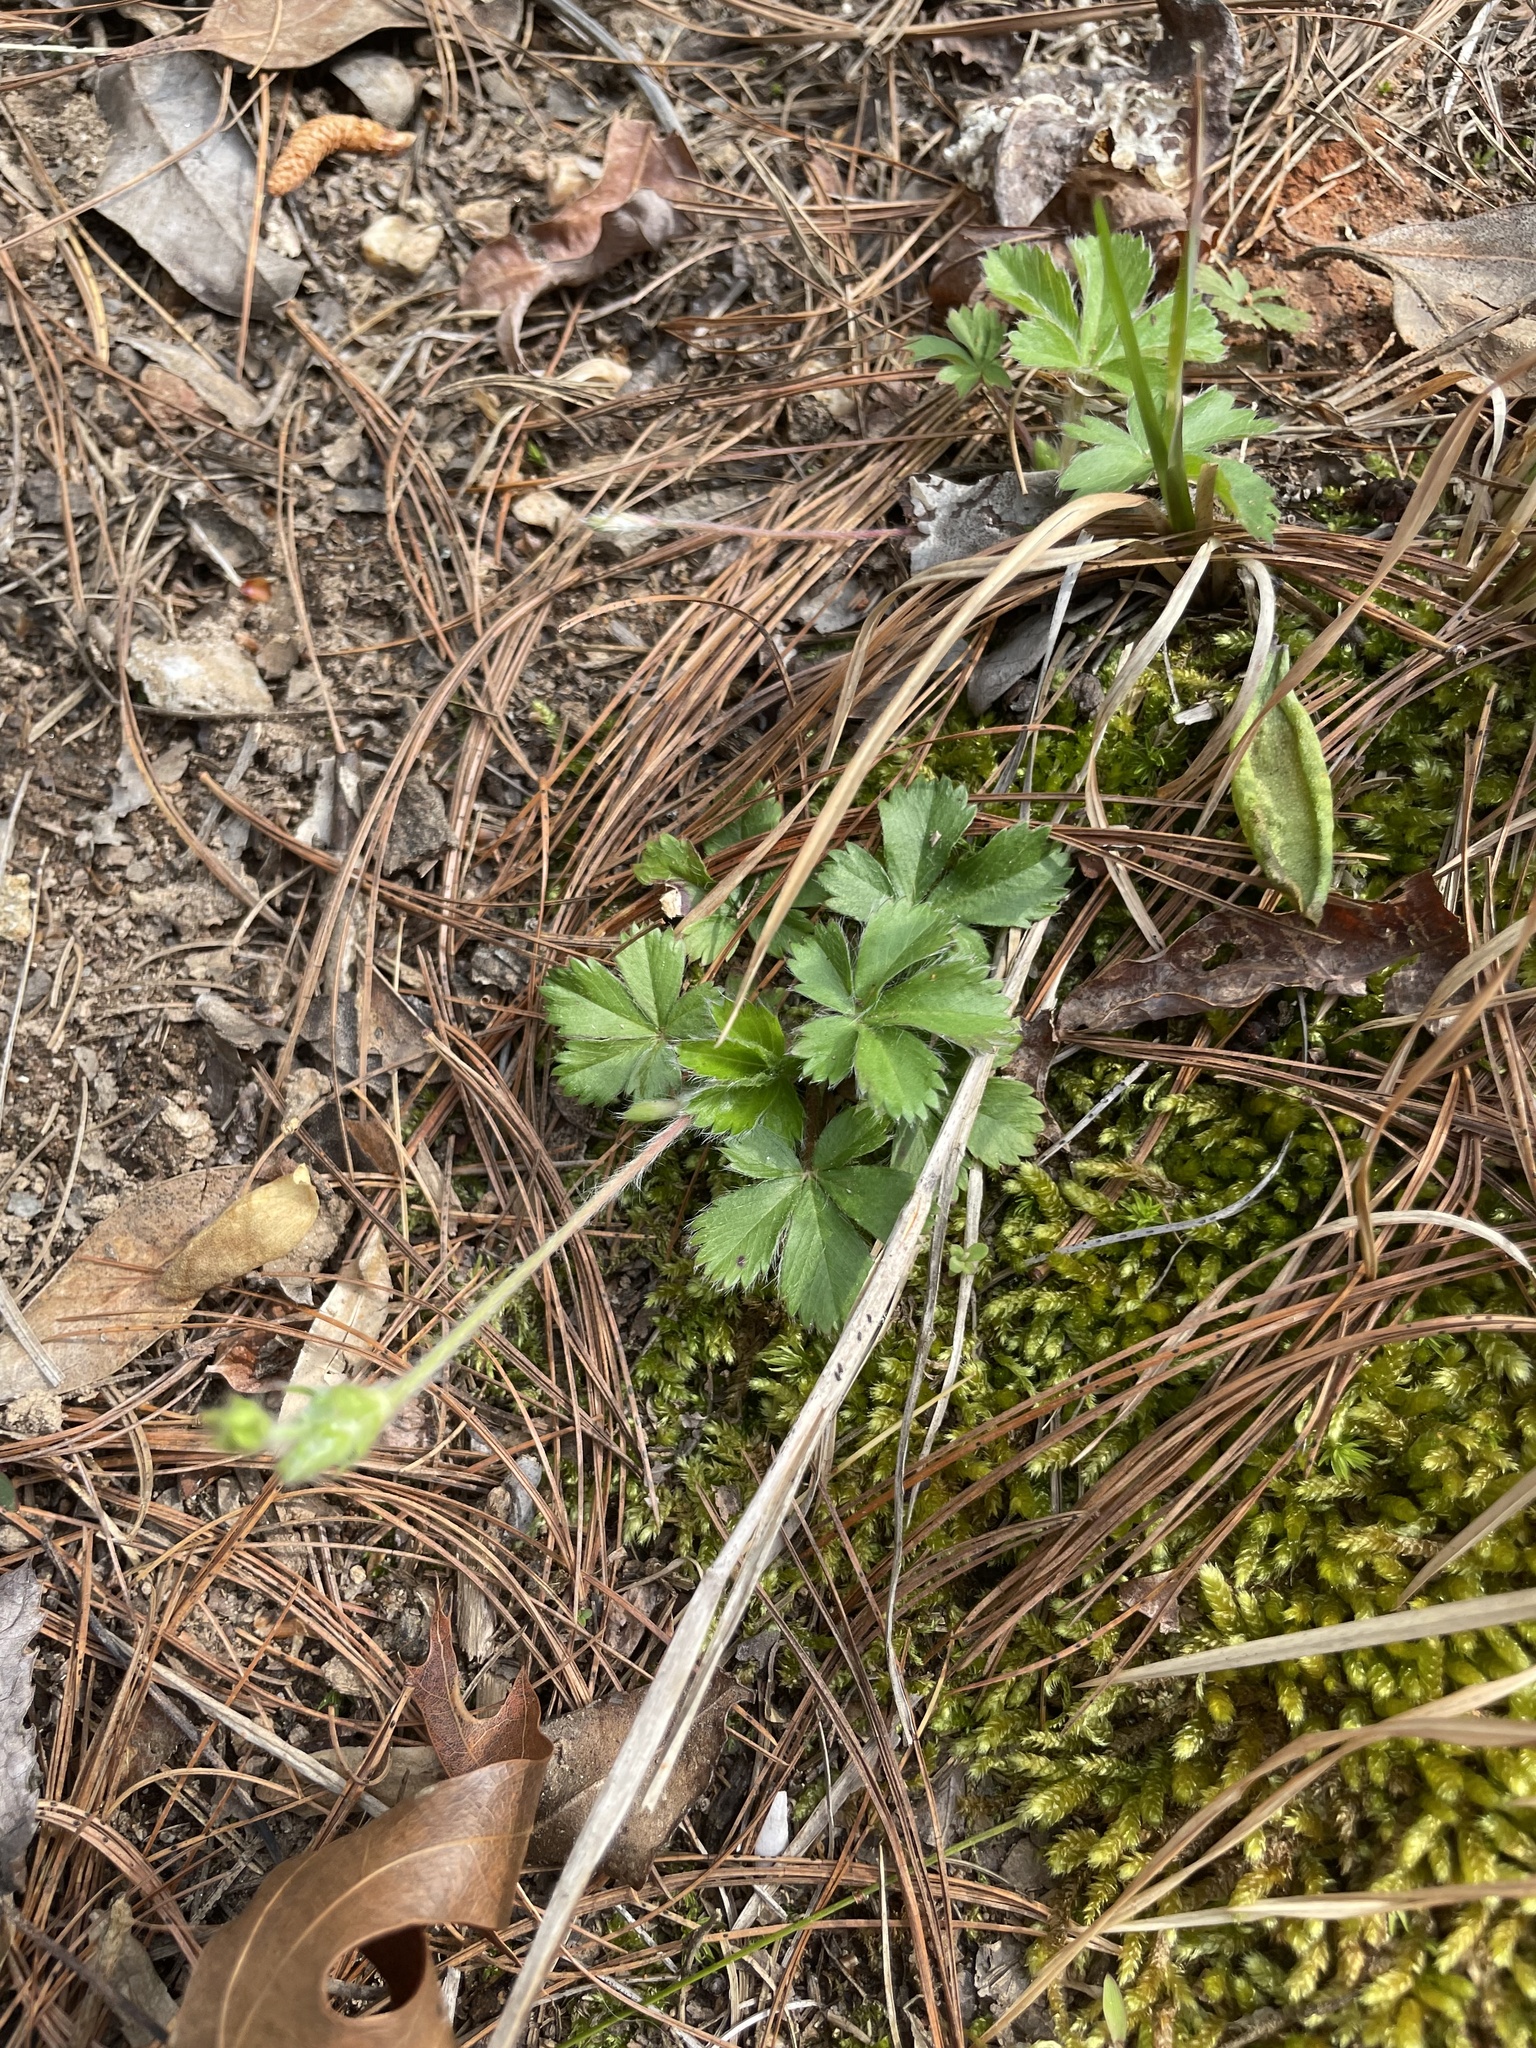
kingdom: Plantae
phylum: Tracheophyta
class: Magnoliopsida
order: Rosales
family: Rosaceae
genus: Potentilla
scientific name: Potentilla canadensis
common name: Canada cinquefoil
